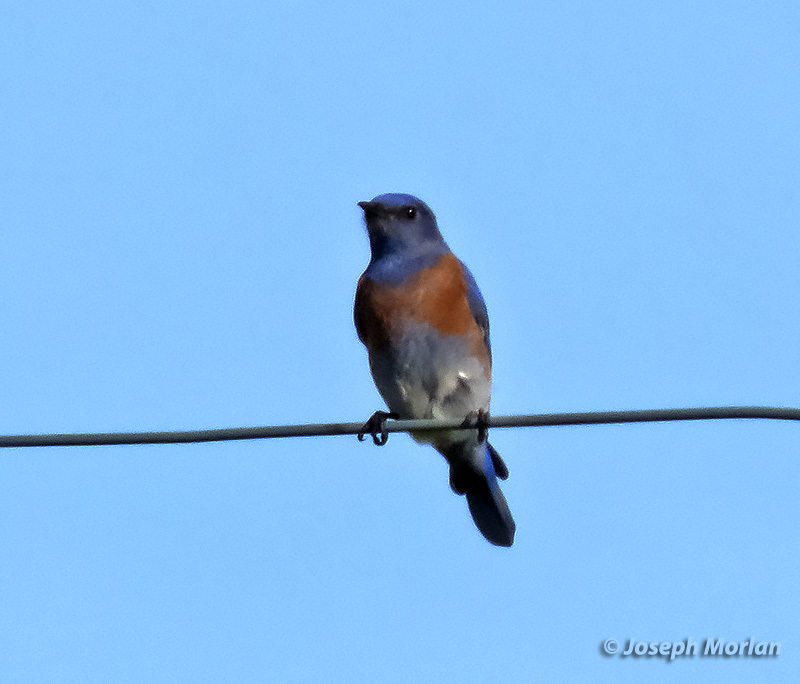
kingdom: Animalia
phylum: Chordata
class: Aves
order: Passeriformes
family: Turdidae
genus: Sialia
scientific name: Sialia mexicana
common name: Western bluebird
